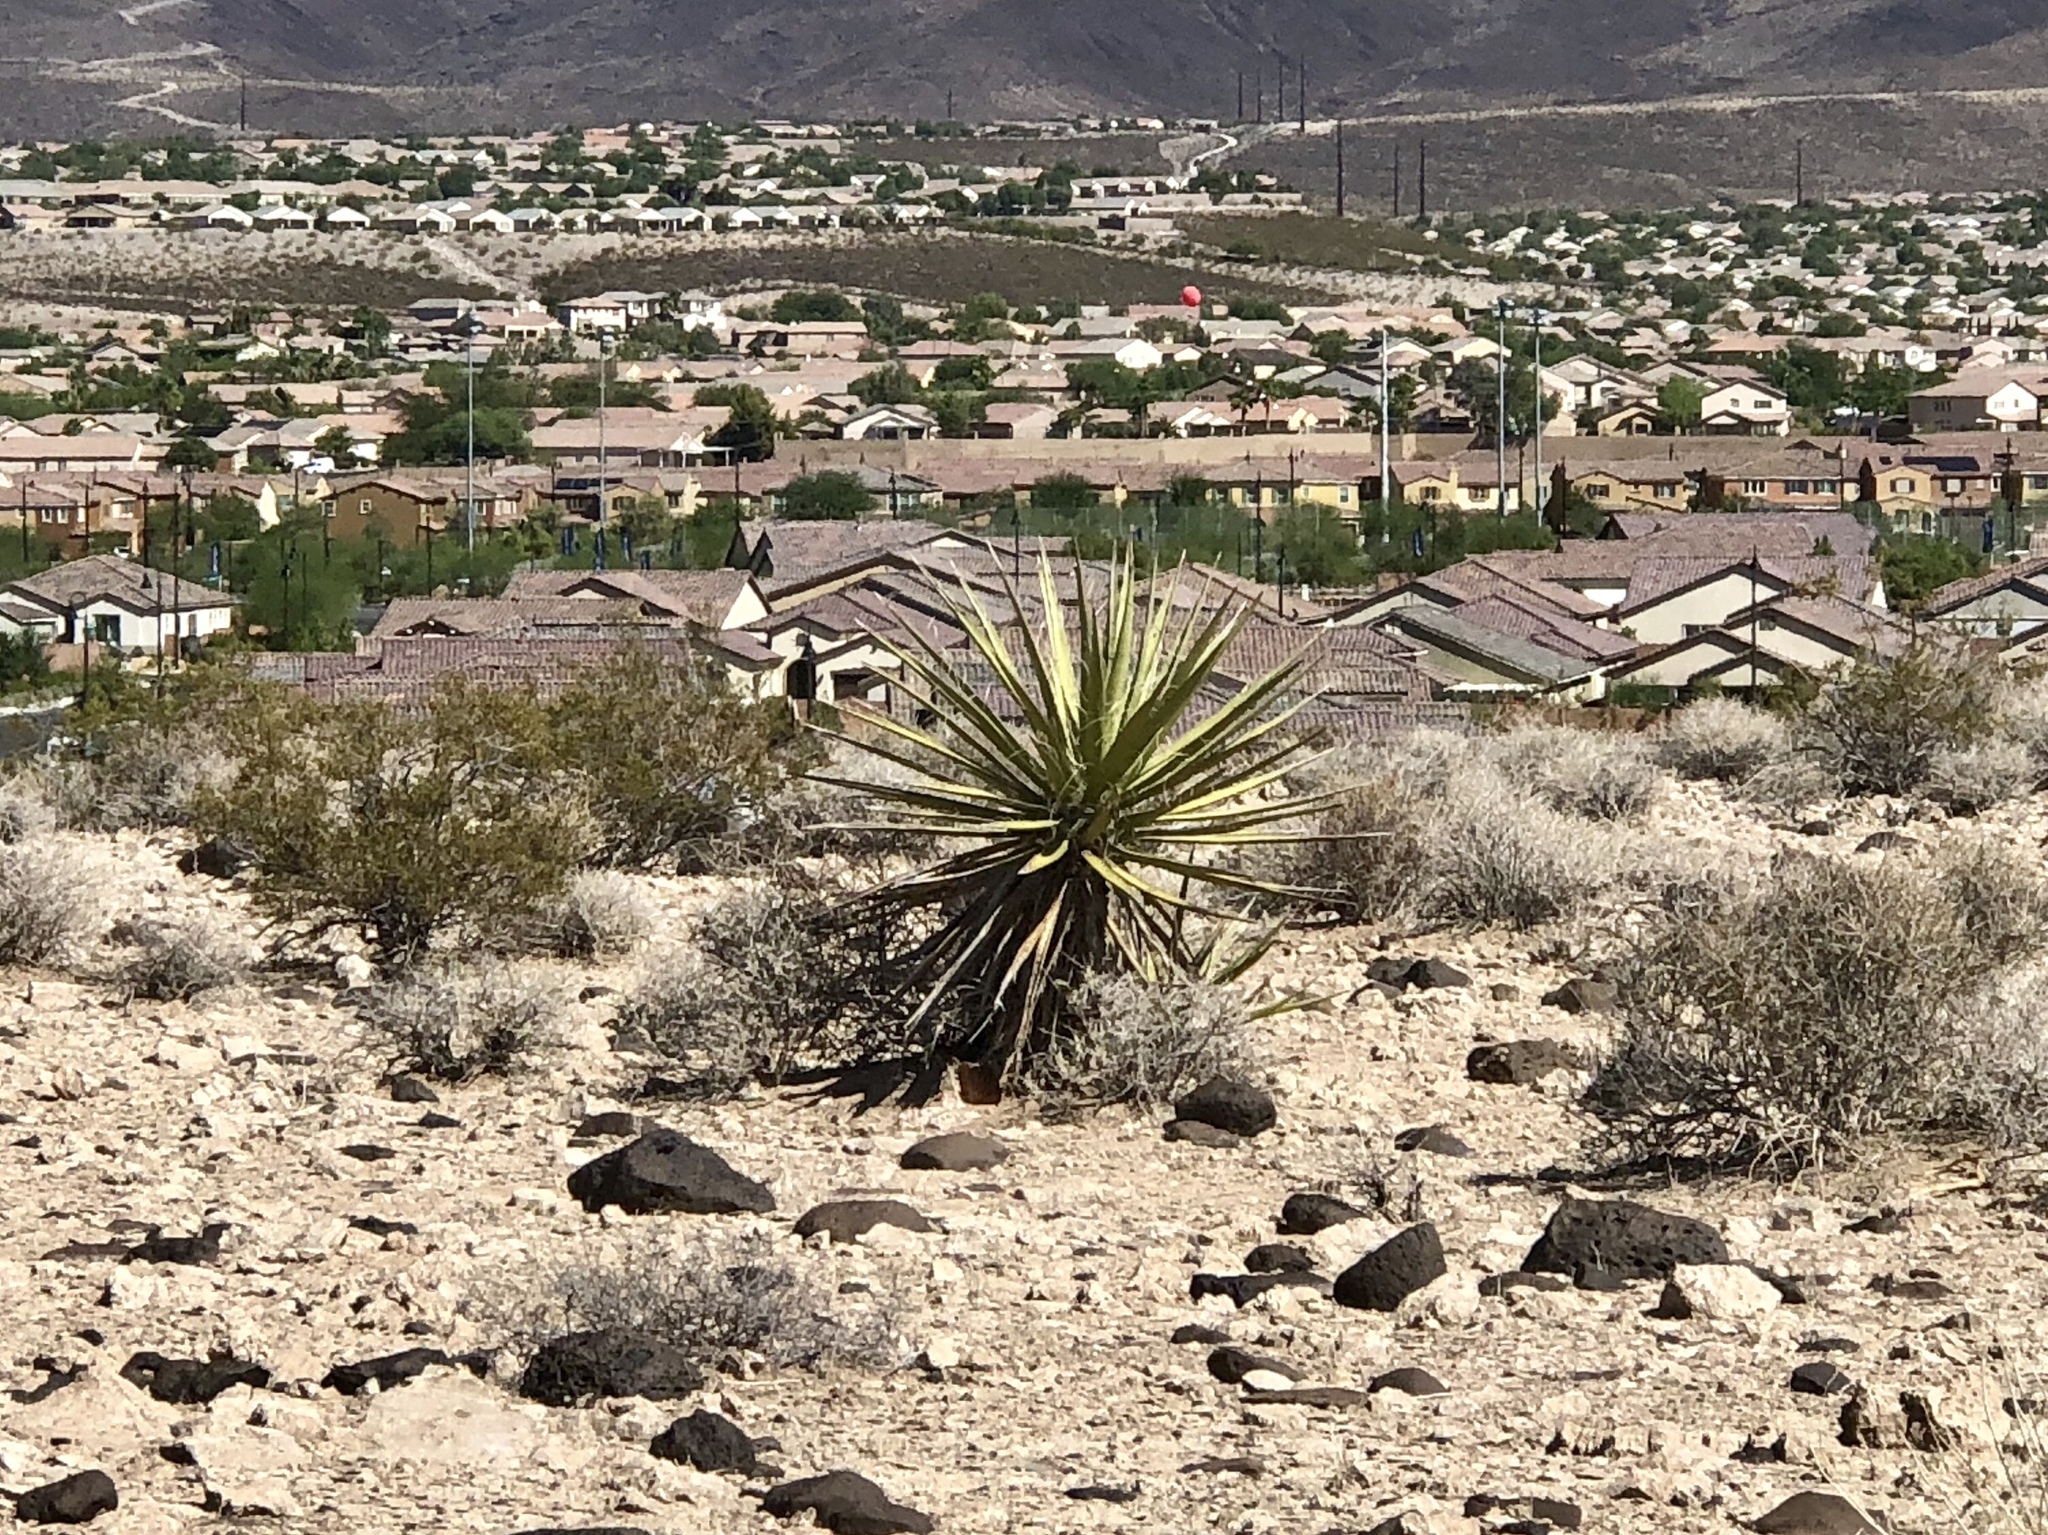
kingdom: Plantae
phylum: Tracheophyta
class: Liliopsida
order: Asparagales
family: Asparagaceae
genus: Yucca
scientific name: Yucca schidigera
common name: Mojave yucca
